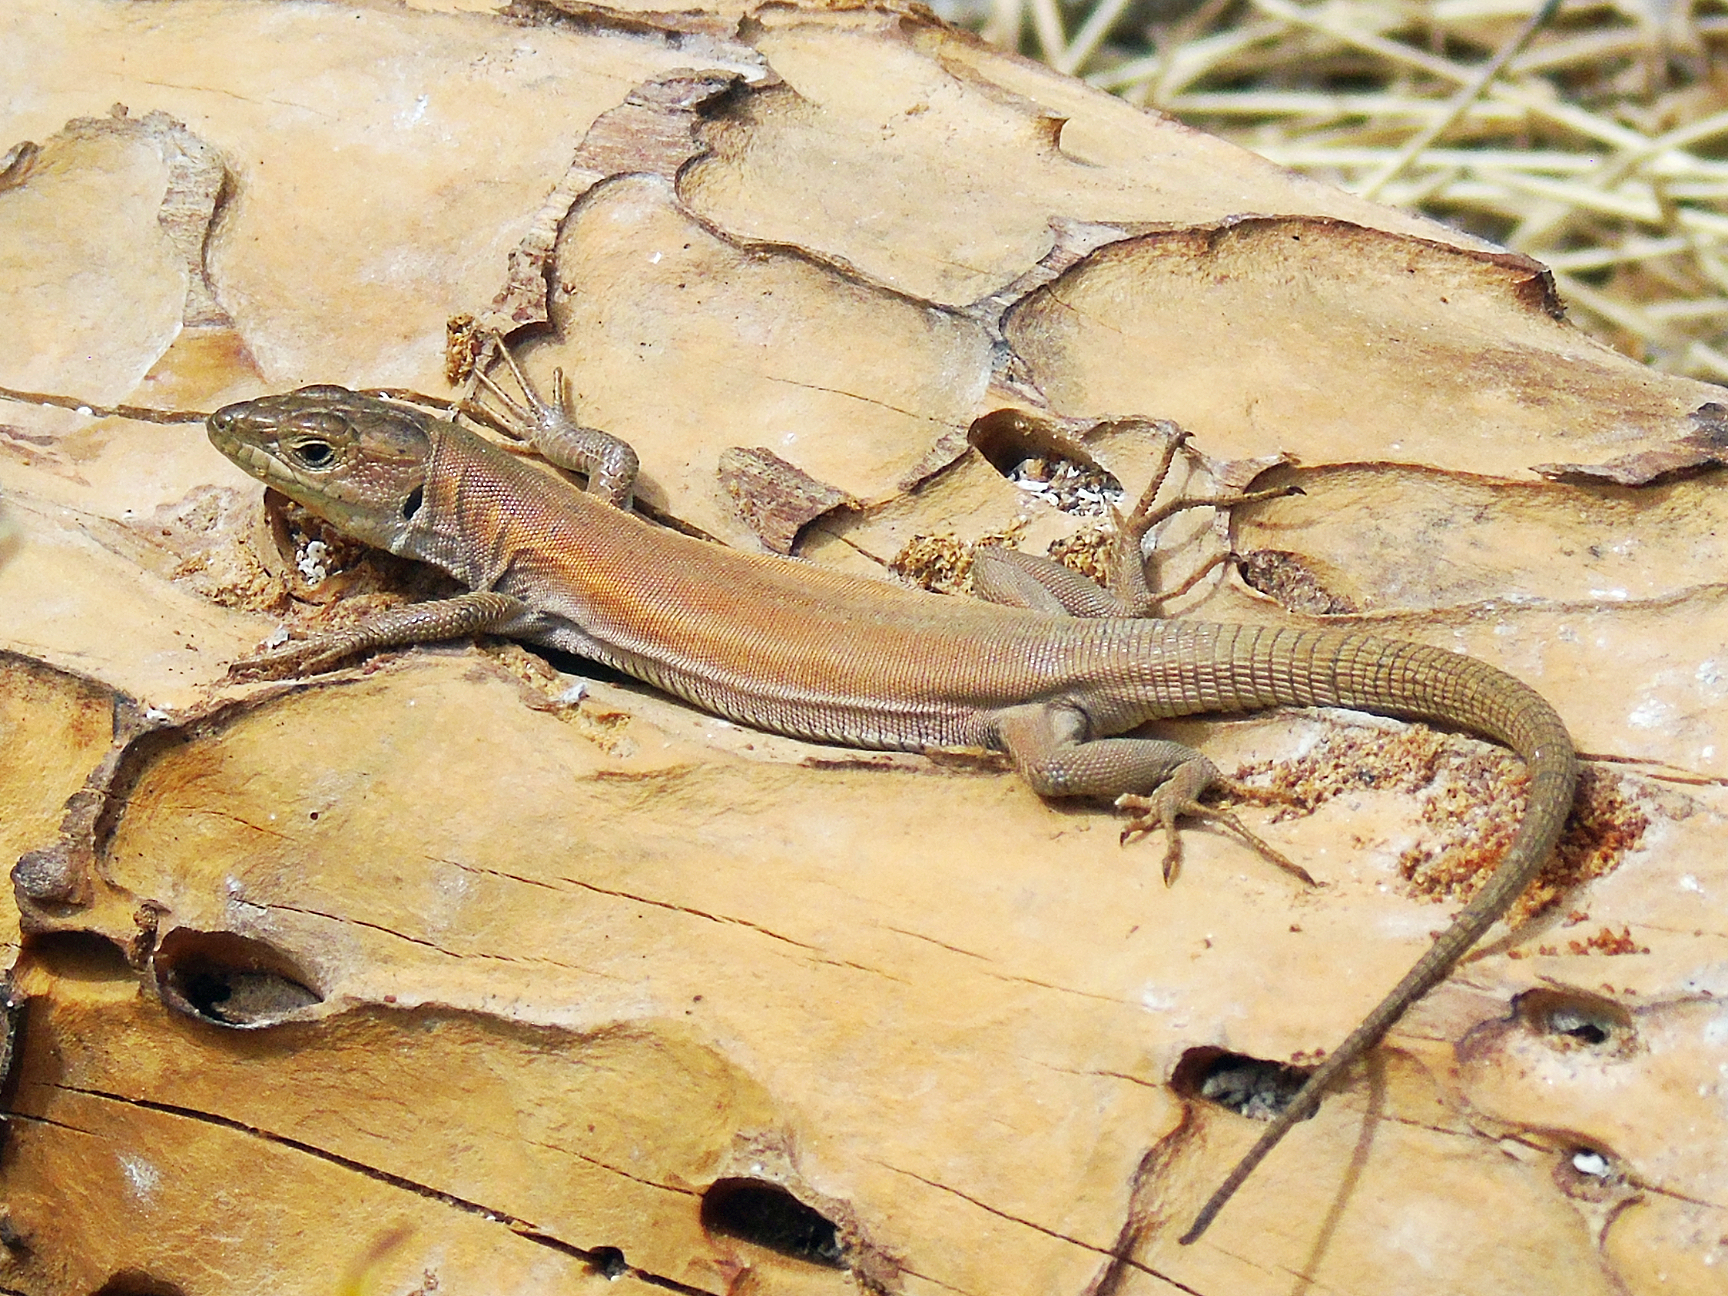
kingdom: Animalia
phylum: Chordata
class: Squamata
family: Lacertidae
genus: Podarcis
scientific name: Podarcis peloponnesiacus
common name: Peloponnese wall lizard
